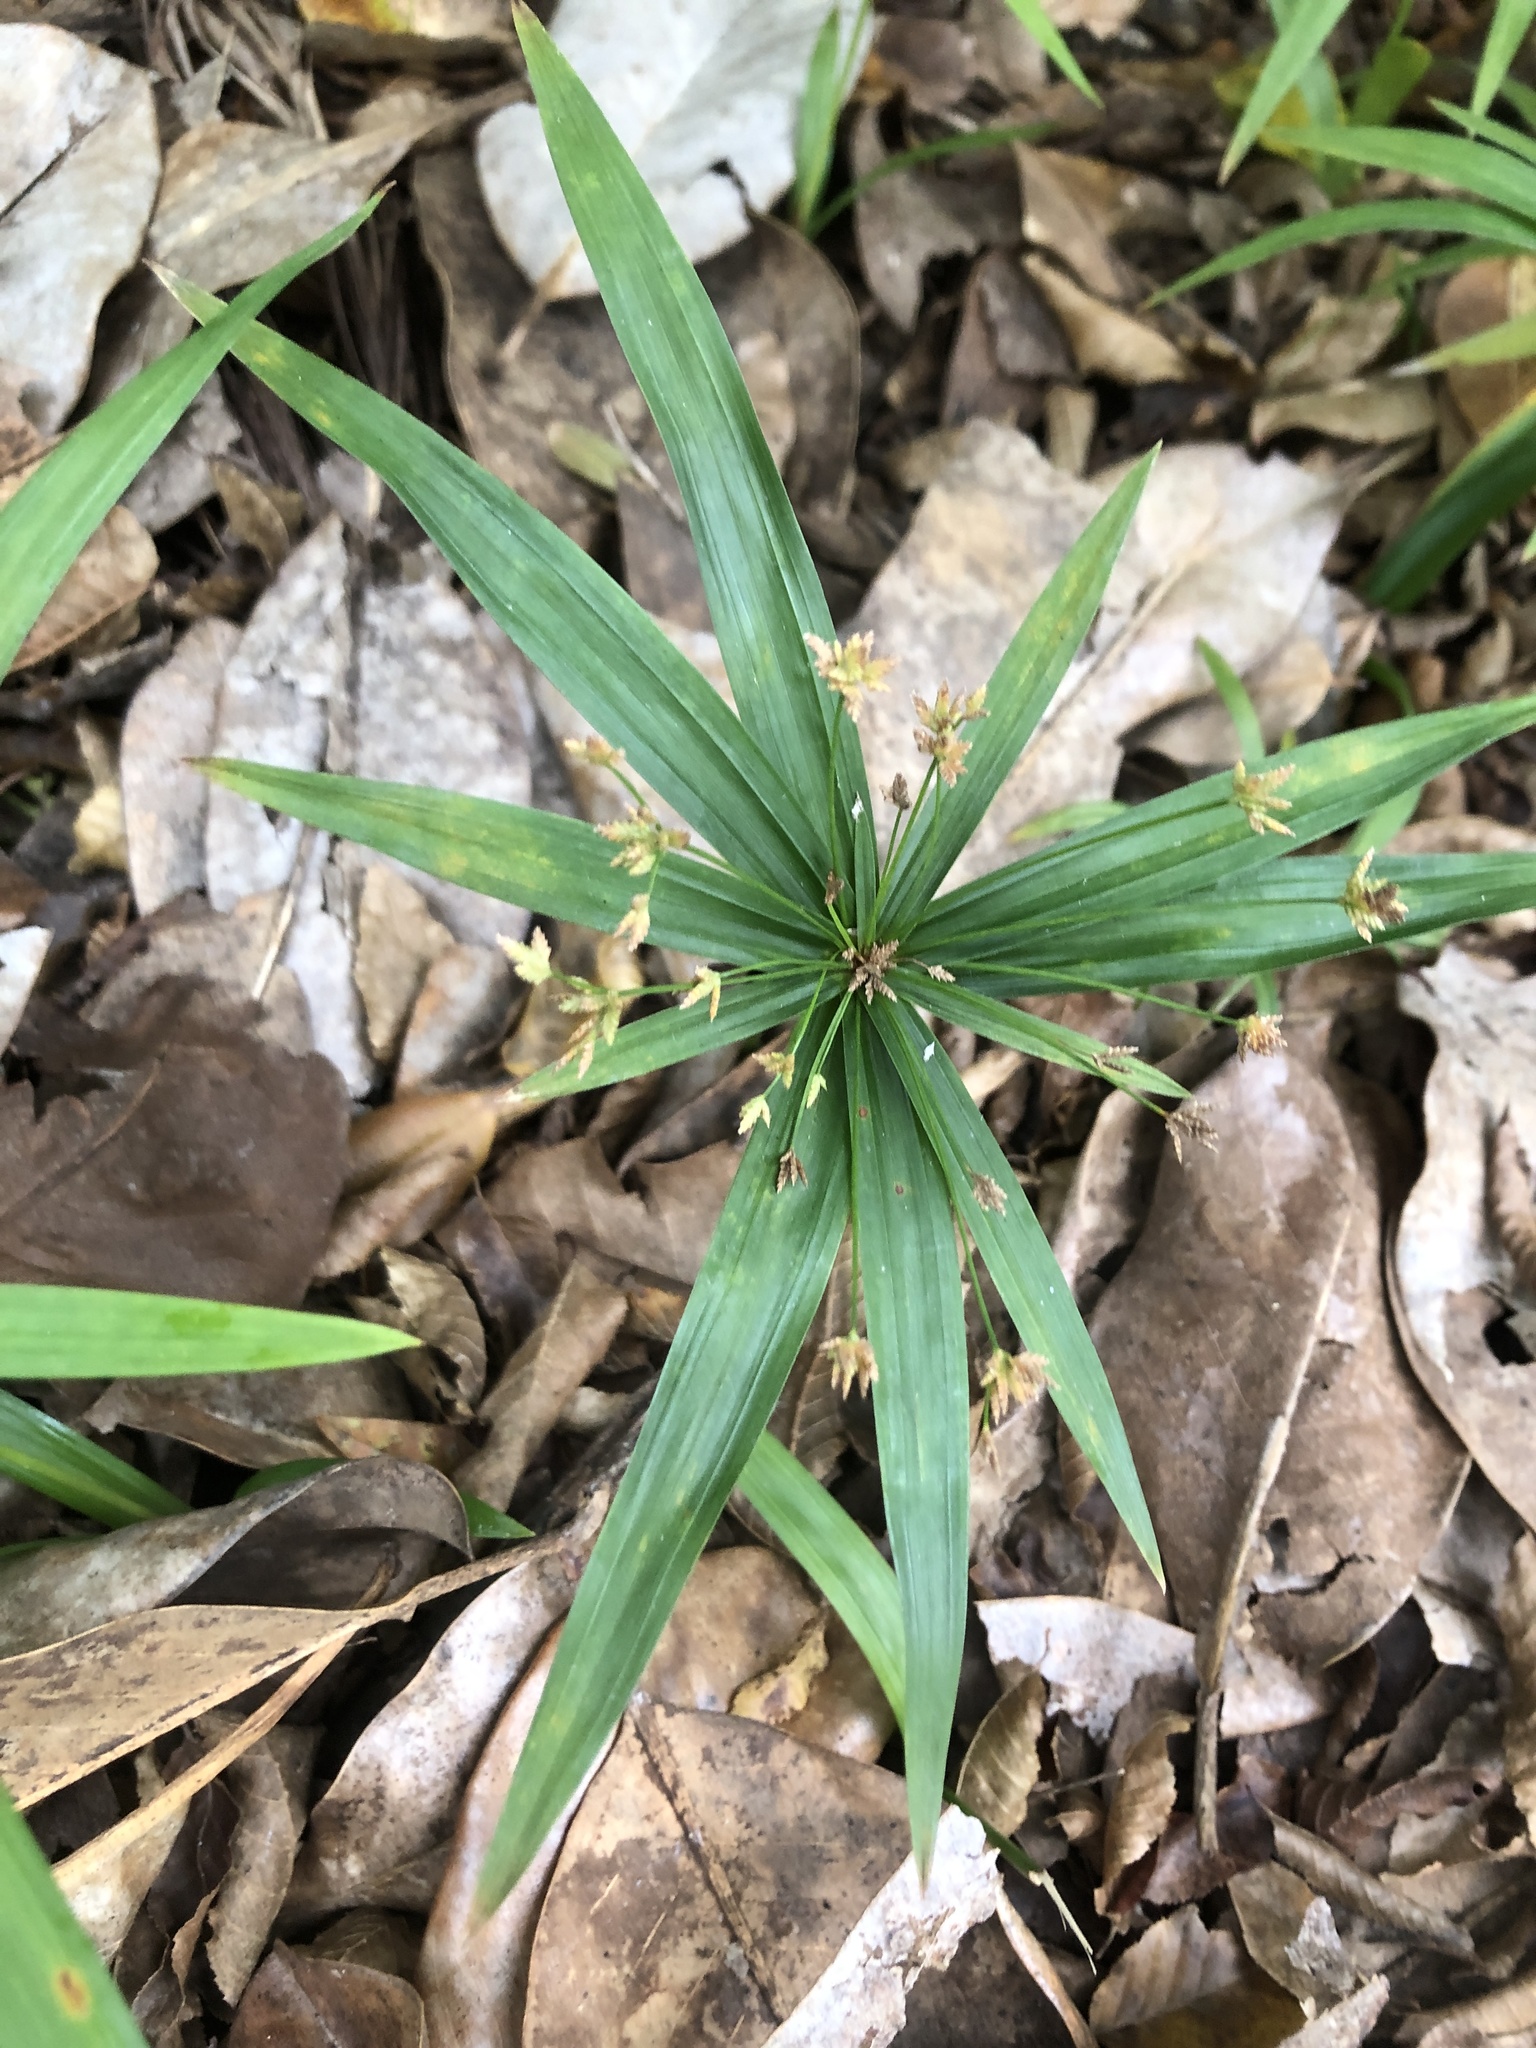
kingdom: Plantae
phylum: Tracheophyta
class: Liliopsida
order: Poales
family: Cyperaceae
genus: Cyperus
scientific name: Cyperus alternifolius
